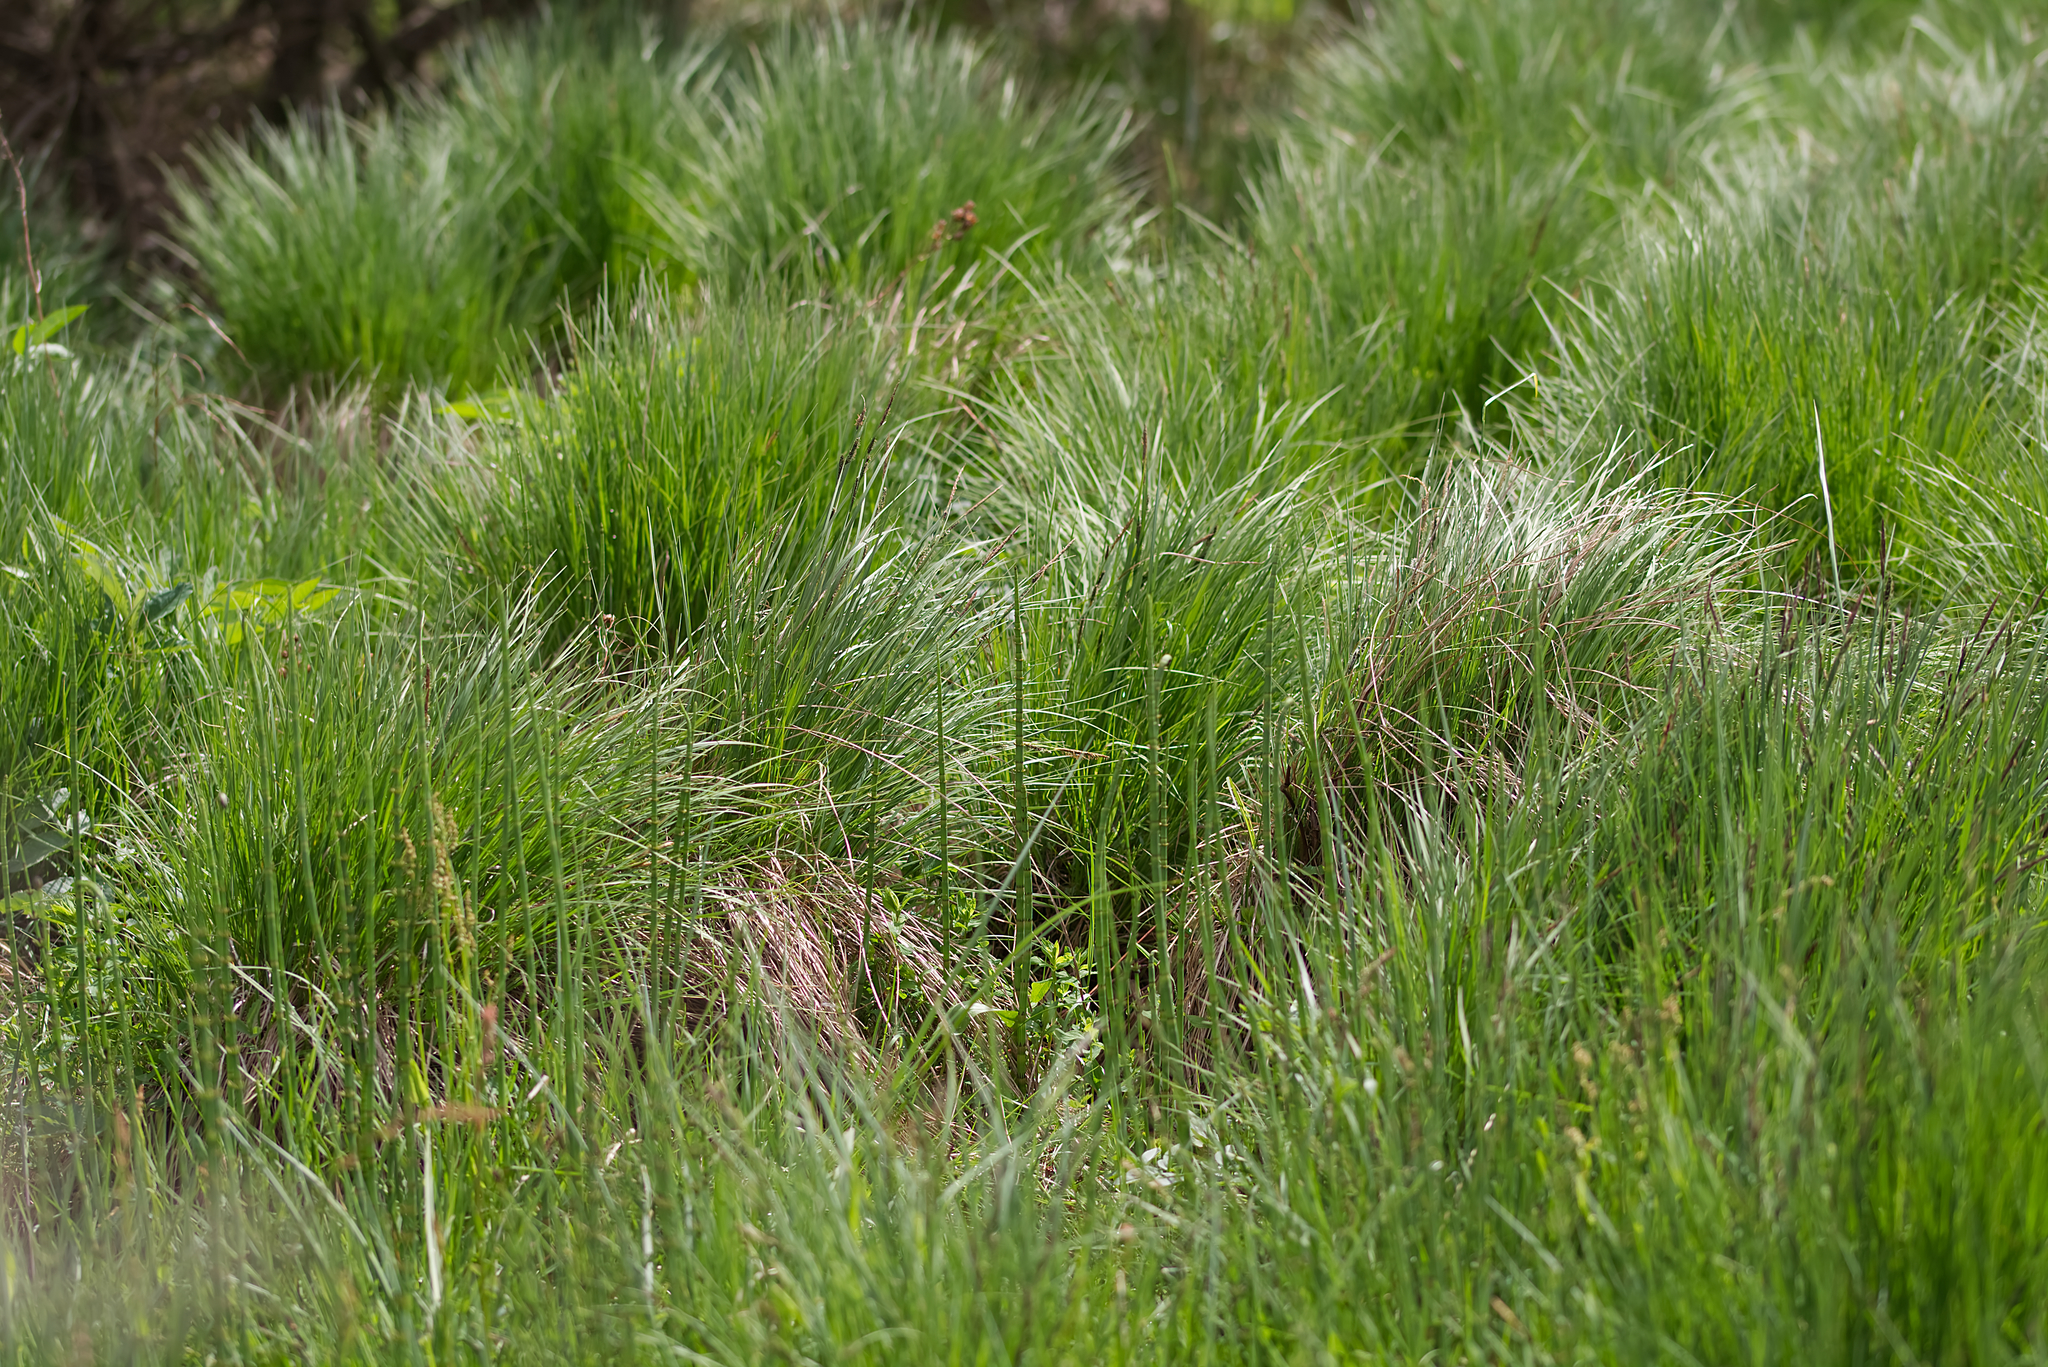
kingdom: Plantae
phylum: Tracheophyta
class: Liliopsida
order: Poales
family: Cyperaceae
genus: Carex
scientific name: Carex elata
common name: Tufted sedge
